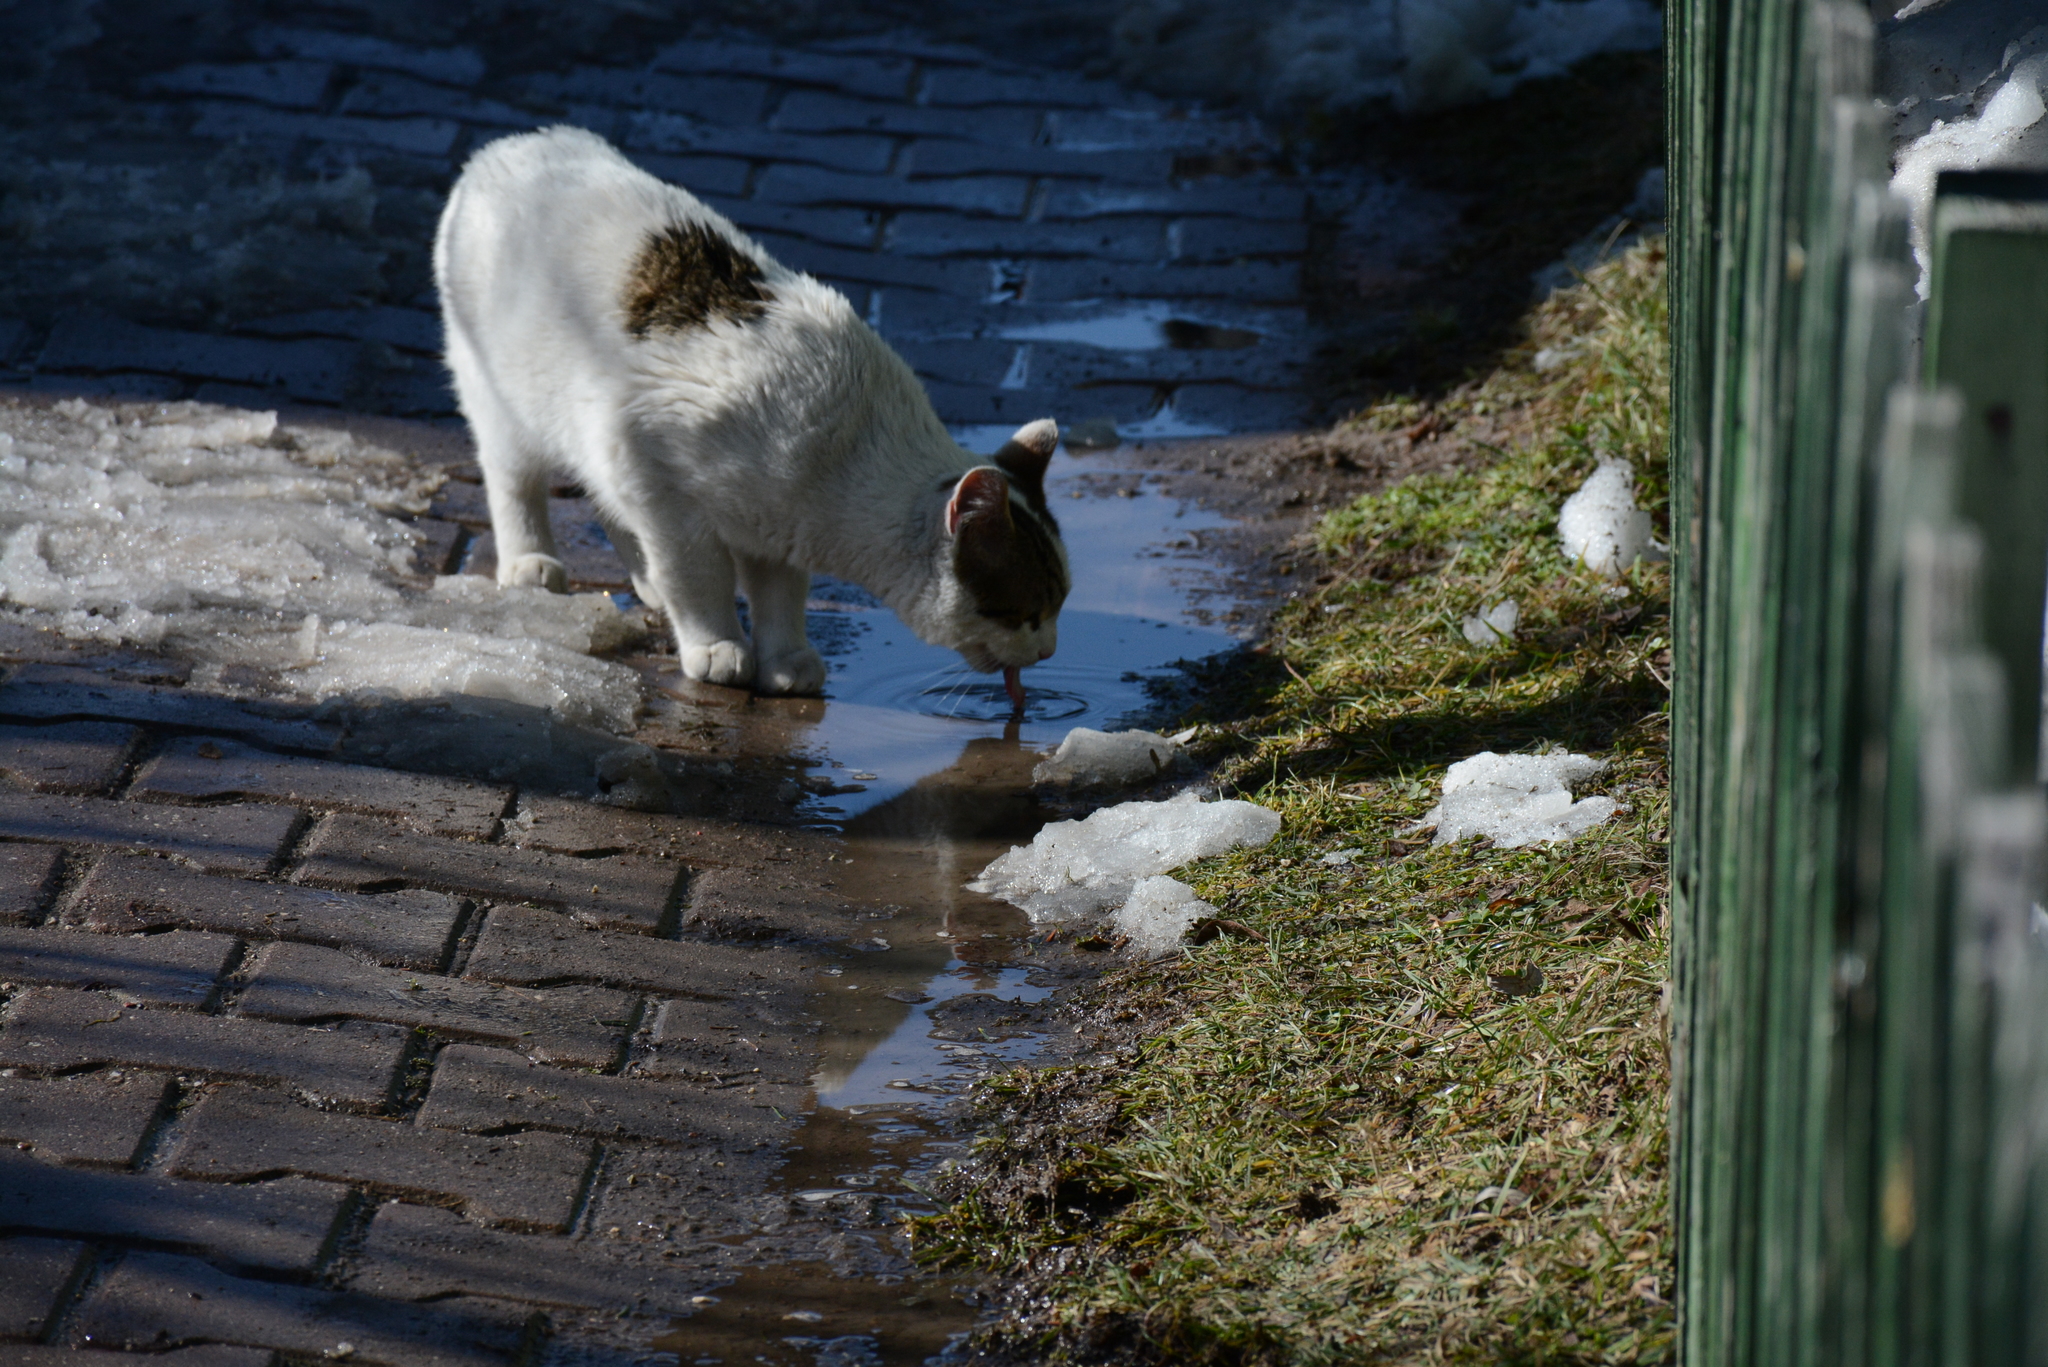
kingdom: Animalia
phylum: Chordata
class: Mammalia
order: Carnivora
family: Felidae
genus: Felis
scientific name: Felis catus
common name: Domestic cat
